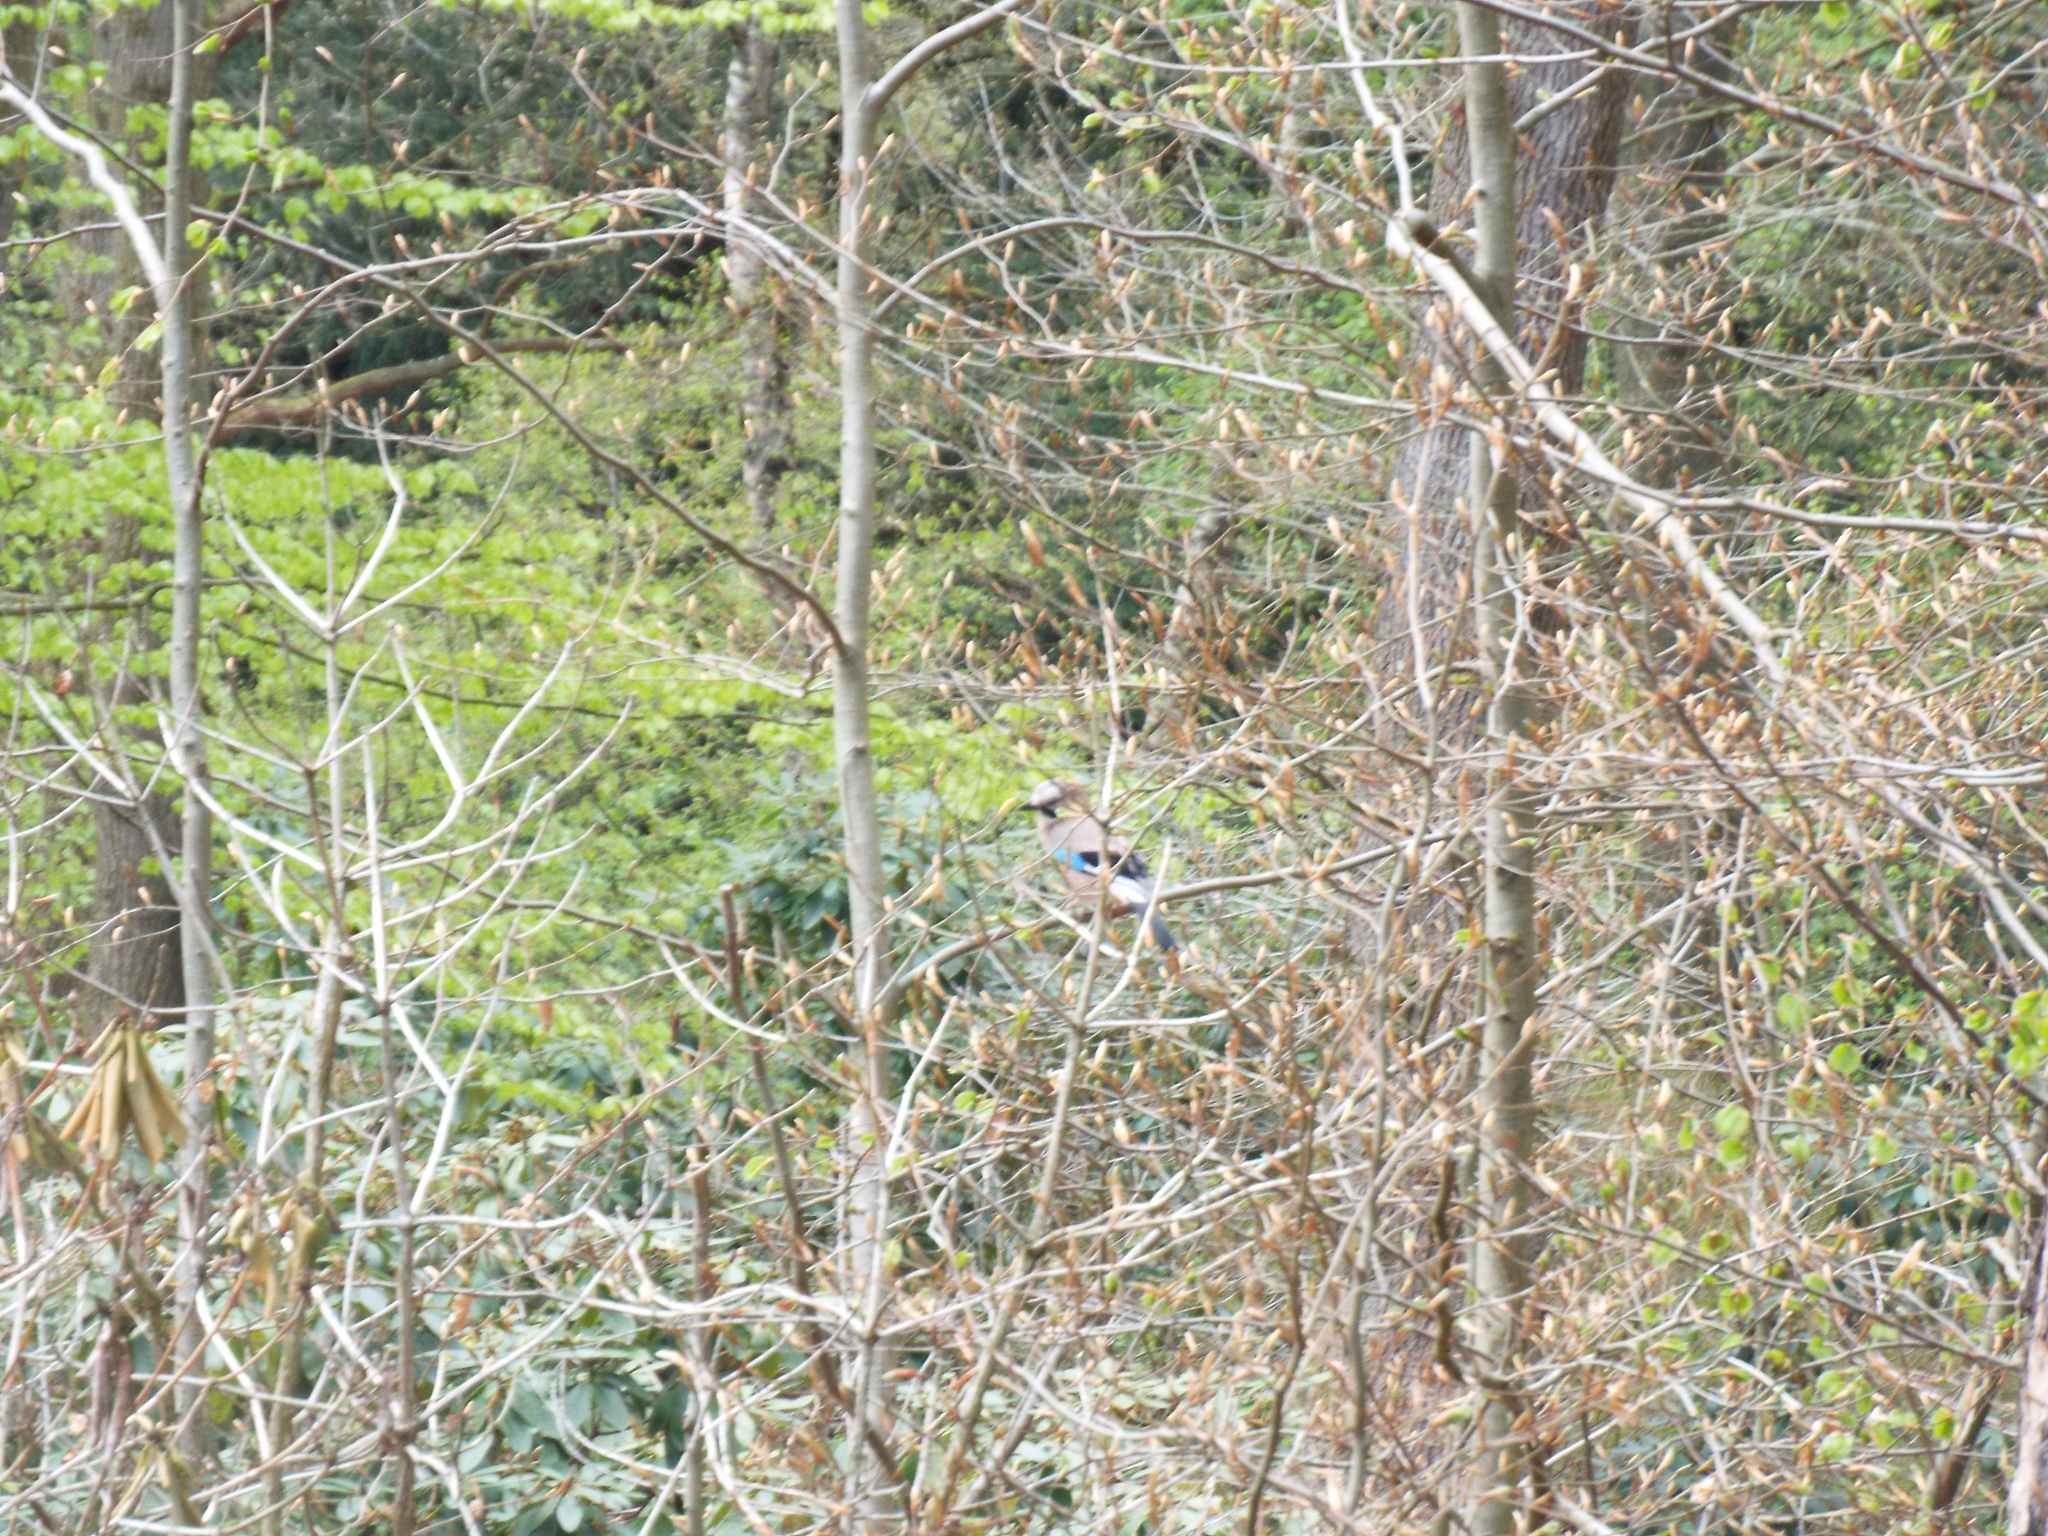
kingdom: Animalia
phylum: Chordata
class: Aves
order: Passeriformes
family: Corvidae
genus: Garrulus
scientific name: Garrulus glandarius
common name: Eurasian jay
